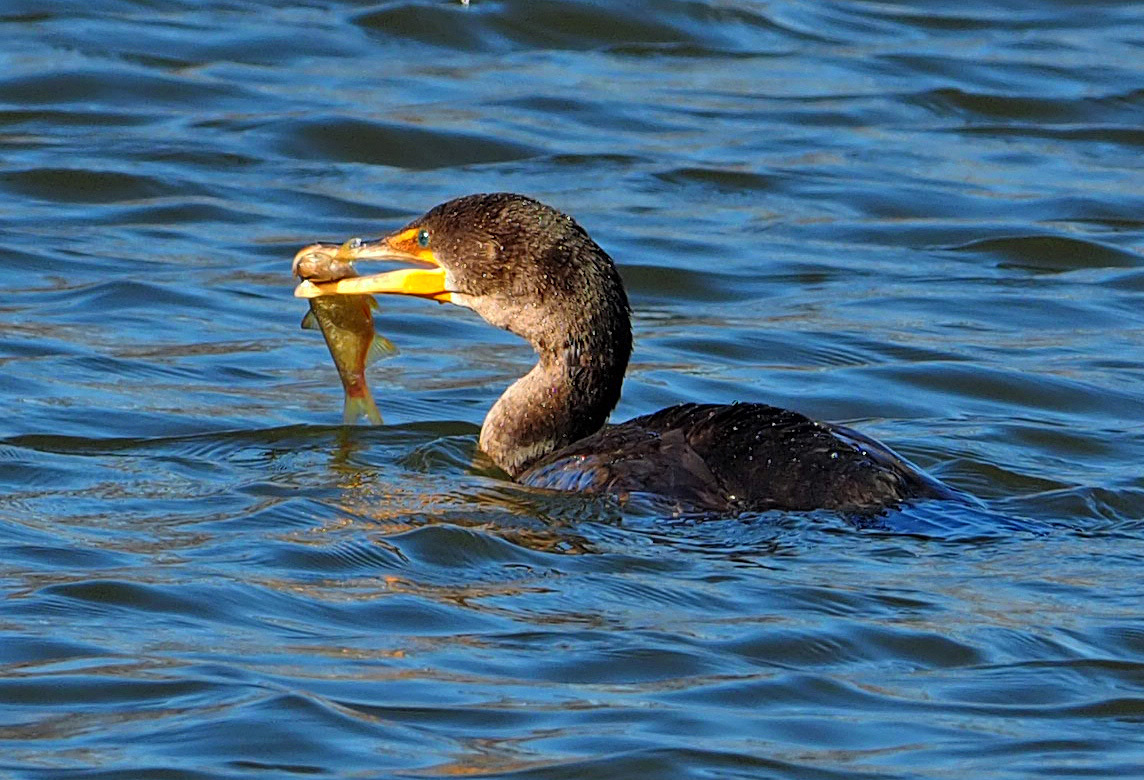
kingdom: Animalia
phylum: Chordata
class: Aves
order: Suliformes
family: Phalacrocoracidae
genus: Phalacrocorax
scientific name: Phalacrocorax auritus
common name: Double-crested cormorant
